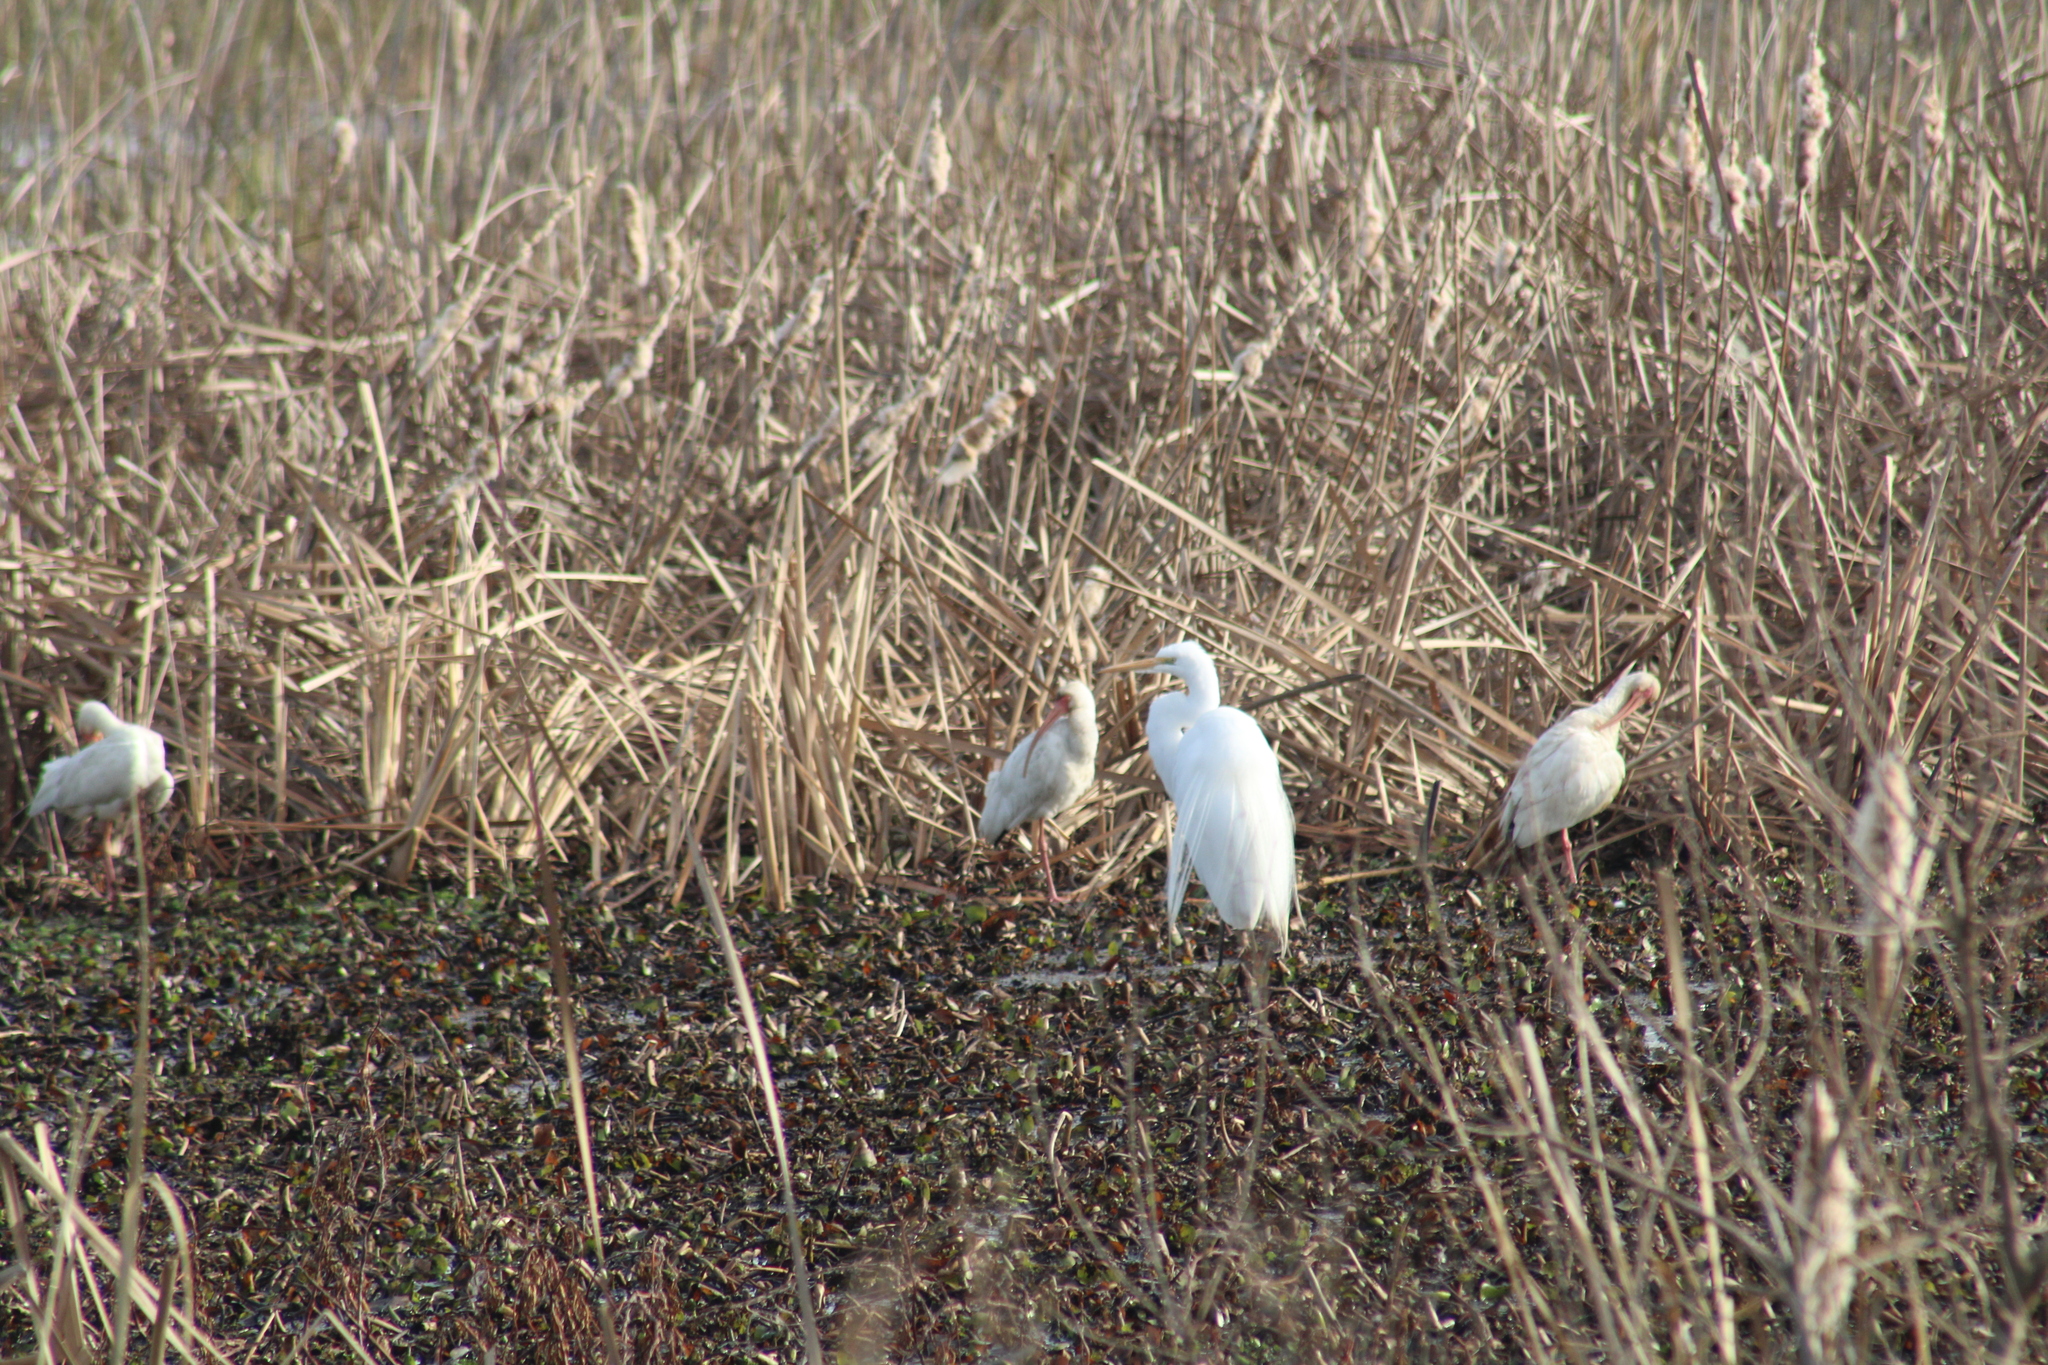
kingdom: Animalia
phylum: Chordata
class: Aves
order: Pelecaniformes
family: Ardeidae
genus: Ardea
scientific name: Ardea alba
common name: Great egret
